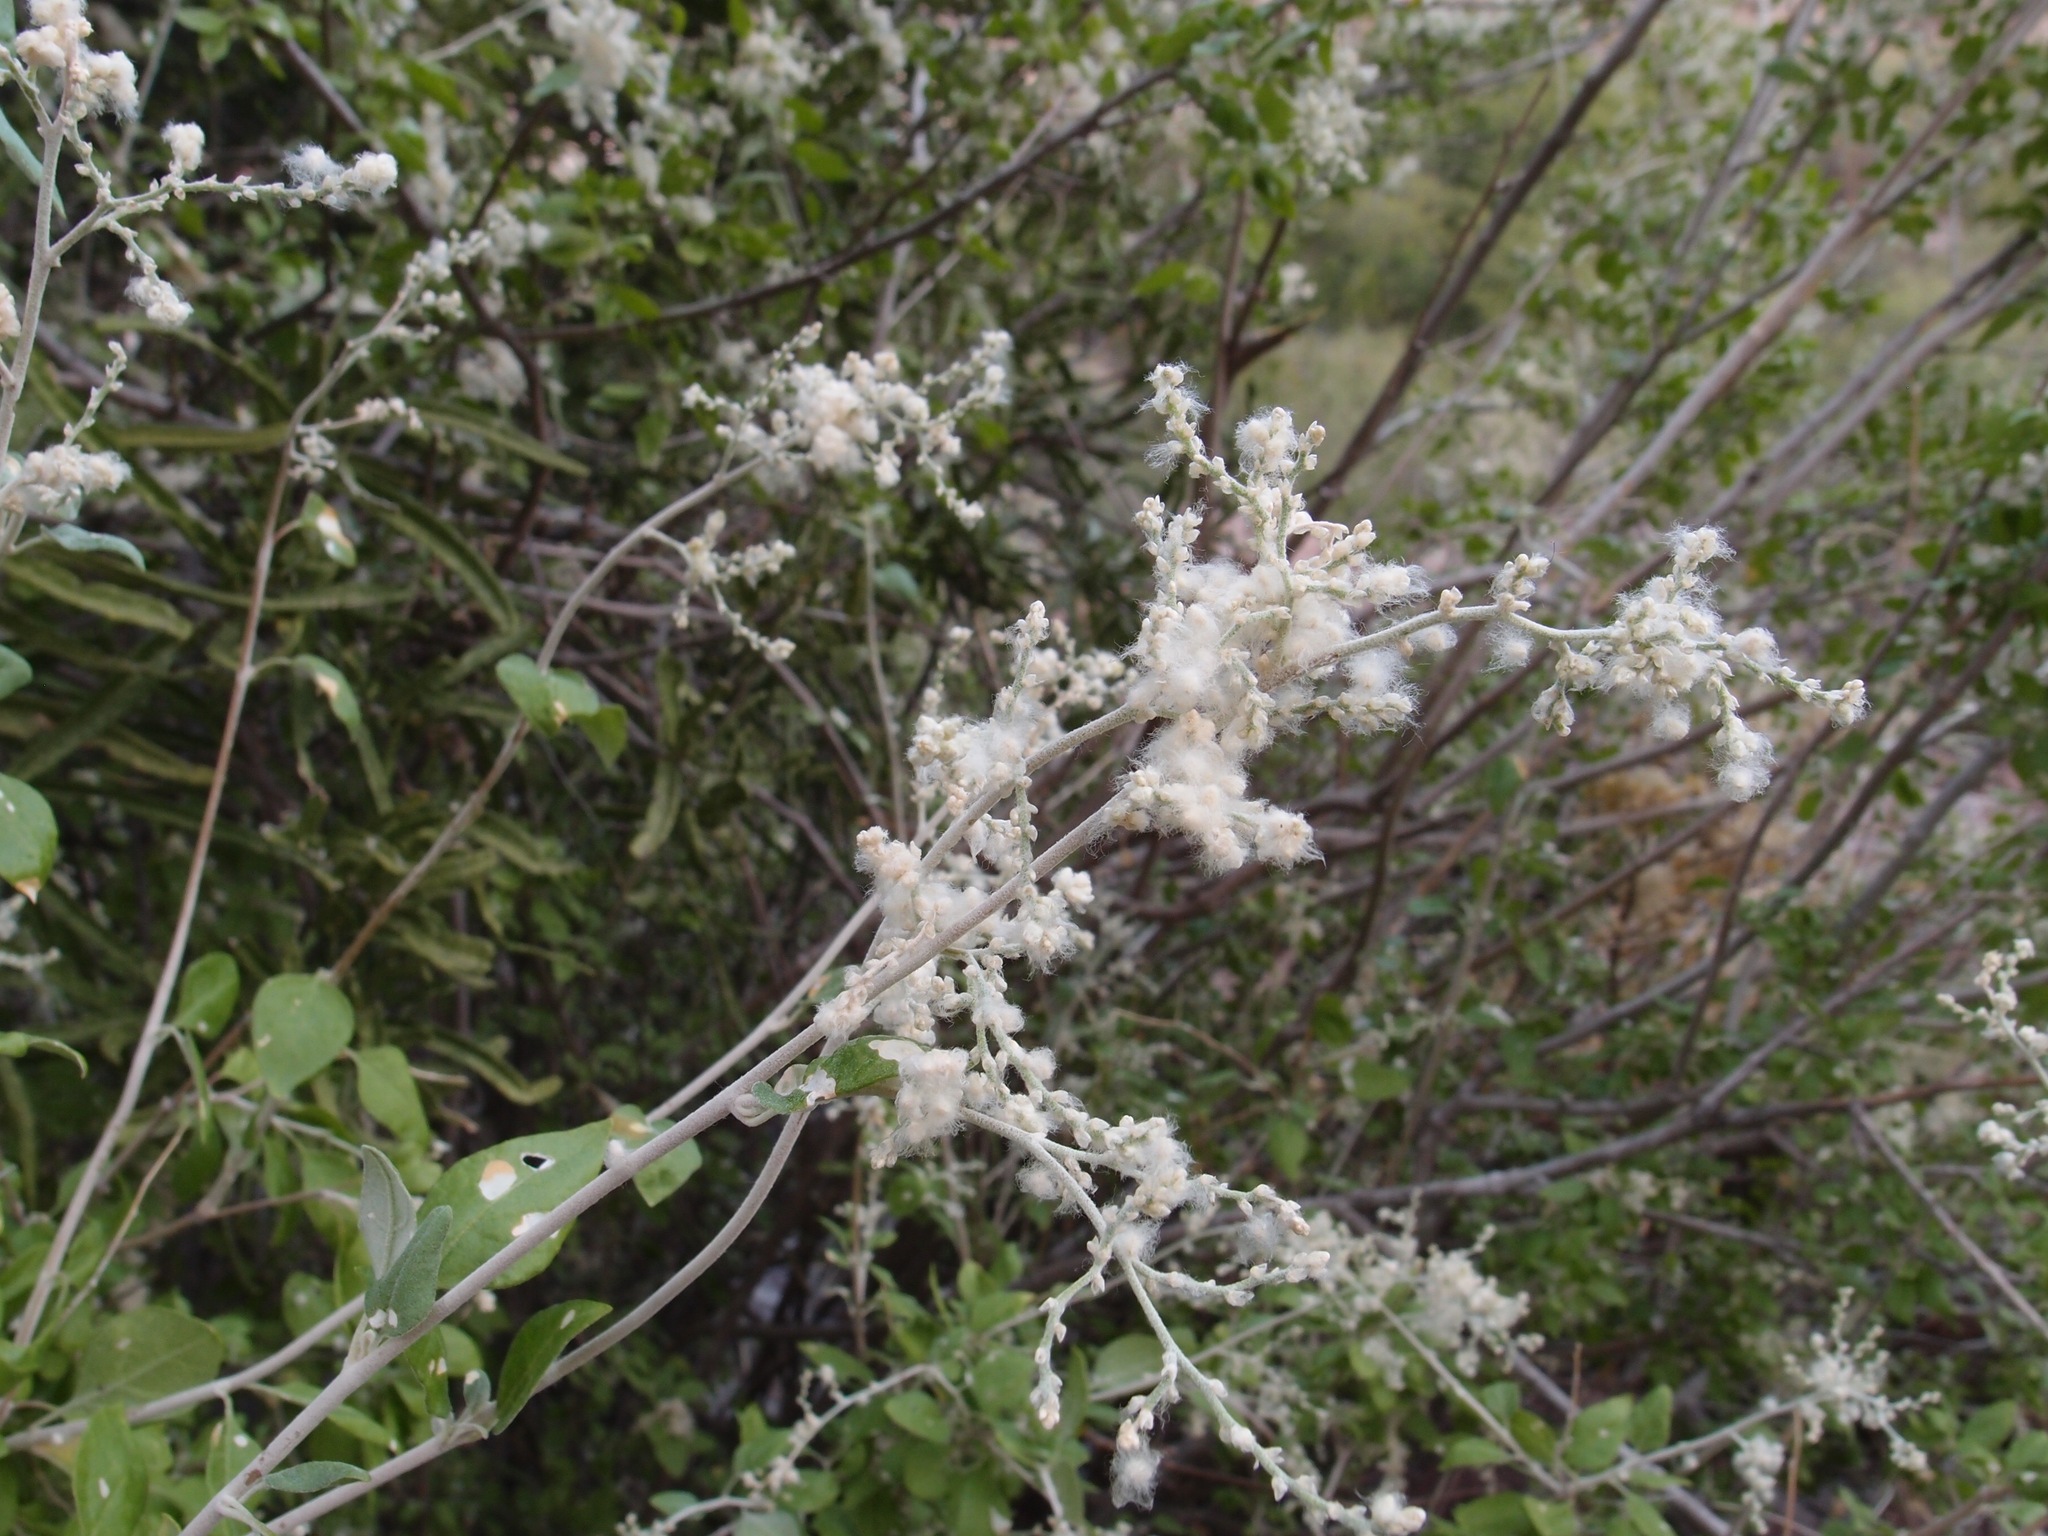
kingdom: Plantae
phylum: Tracheophyta
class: Magnoliopsida
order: Caryophyllales
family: Amaranthaceae
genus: Iresine
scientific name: Iresine alternifolia
